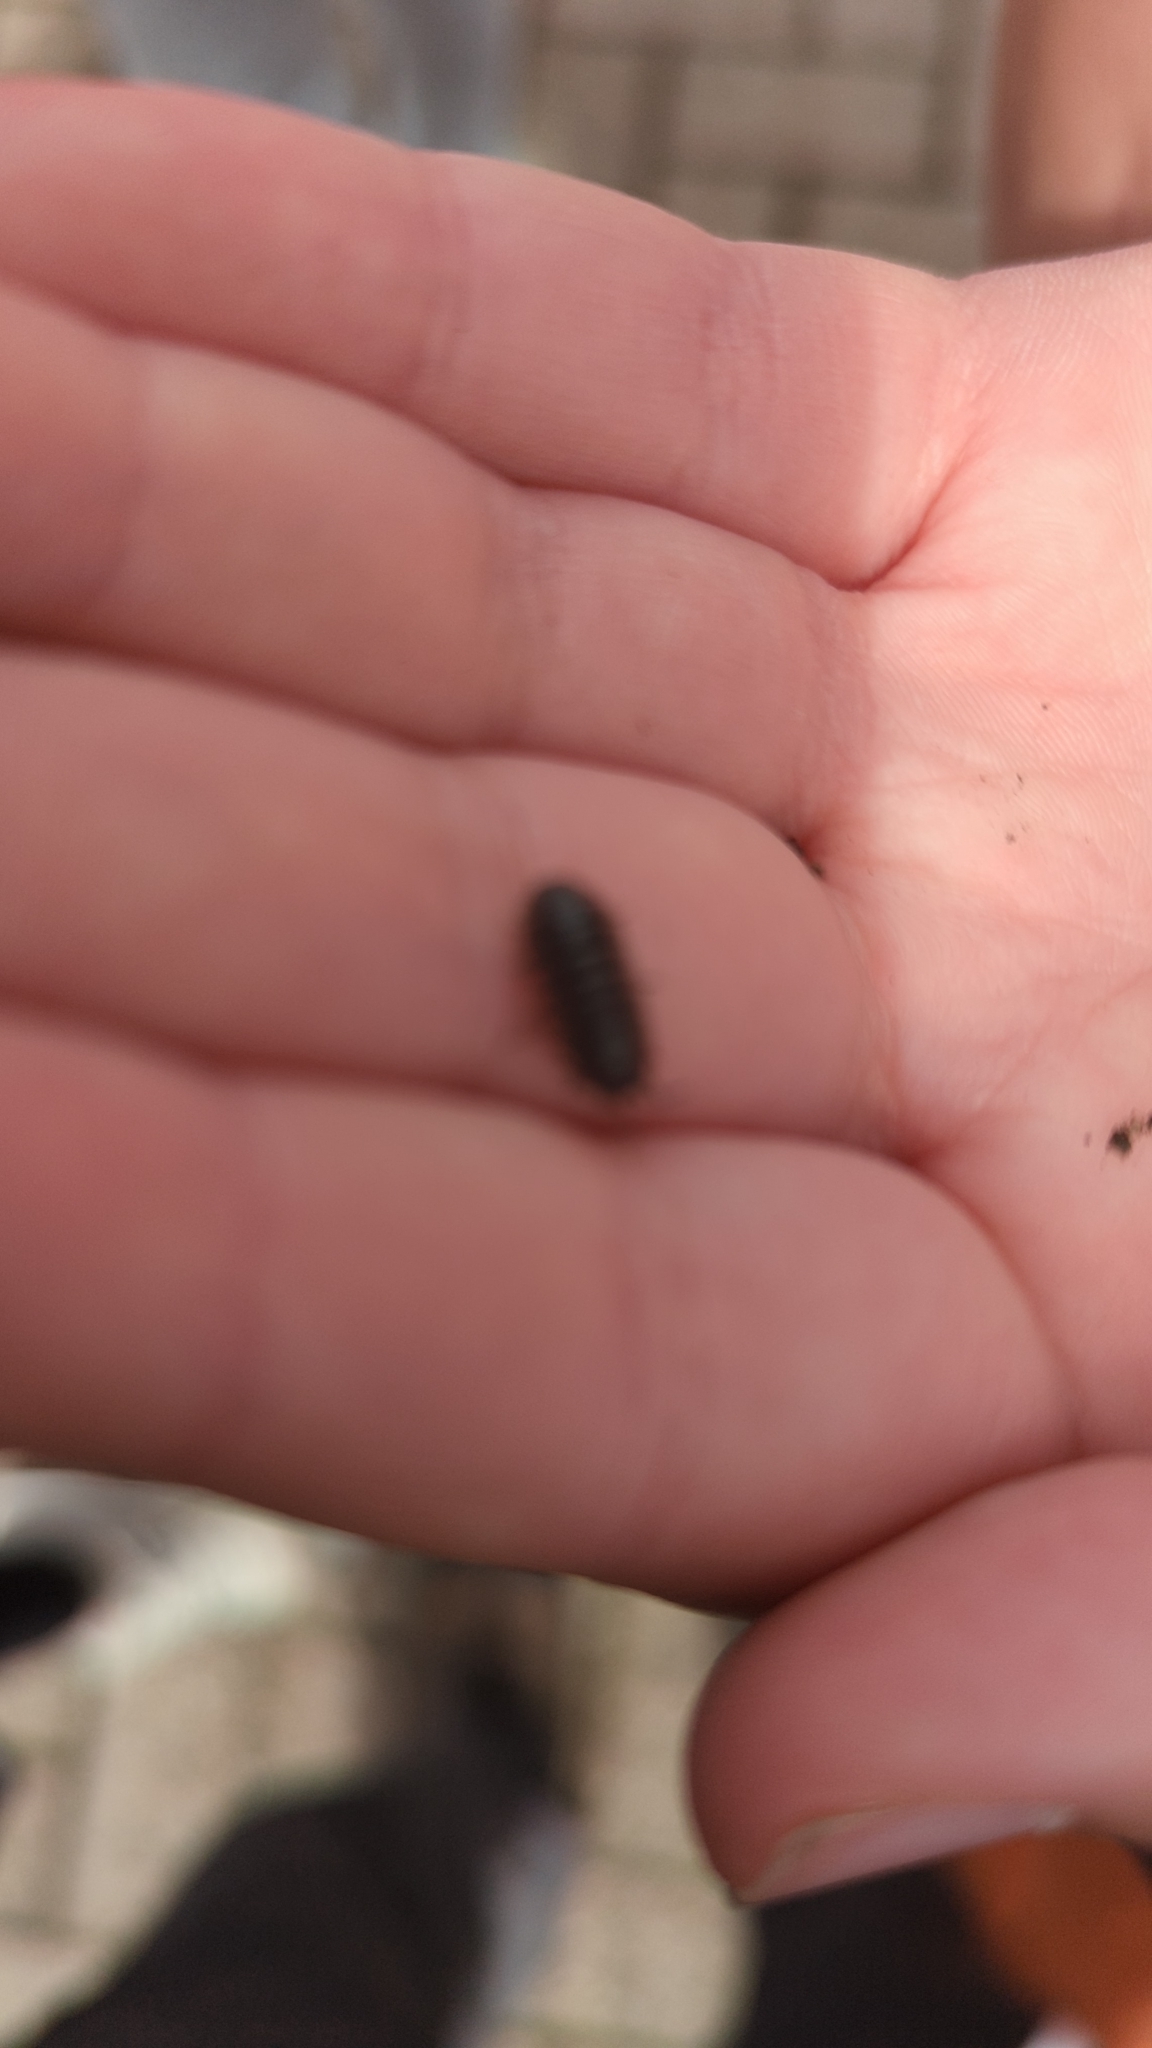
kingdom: Animalia
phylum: Arthropoda
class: Malacostraca
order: Isopoda
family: Armadillidiidae
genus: Armadillidium
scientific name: Armadillidium vulgare
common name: Common pill woodlouse
